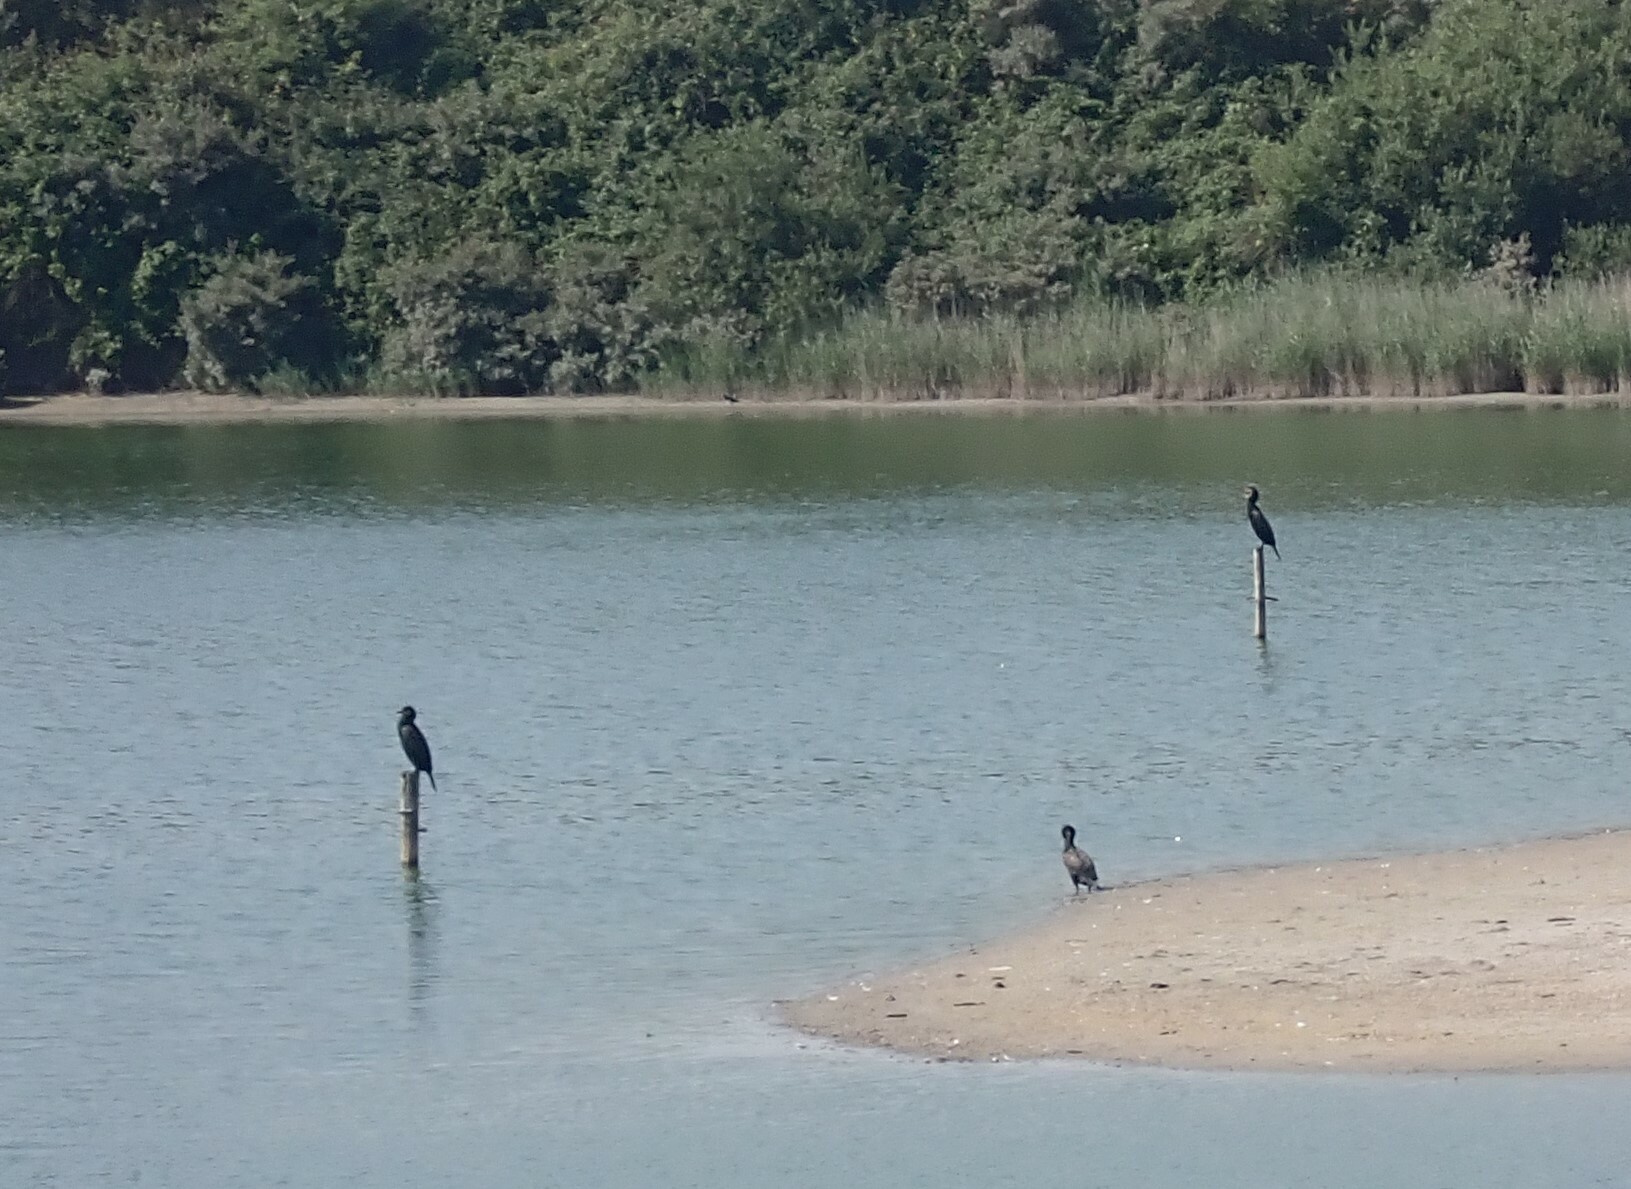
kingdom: Animalia
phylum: Chordata
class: Aves
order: Suliformes
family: Phalacrocoracidae
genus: Phalacrocorax
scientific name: Phalacrocorax carbo
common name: Great cormorant
